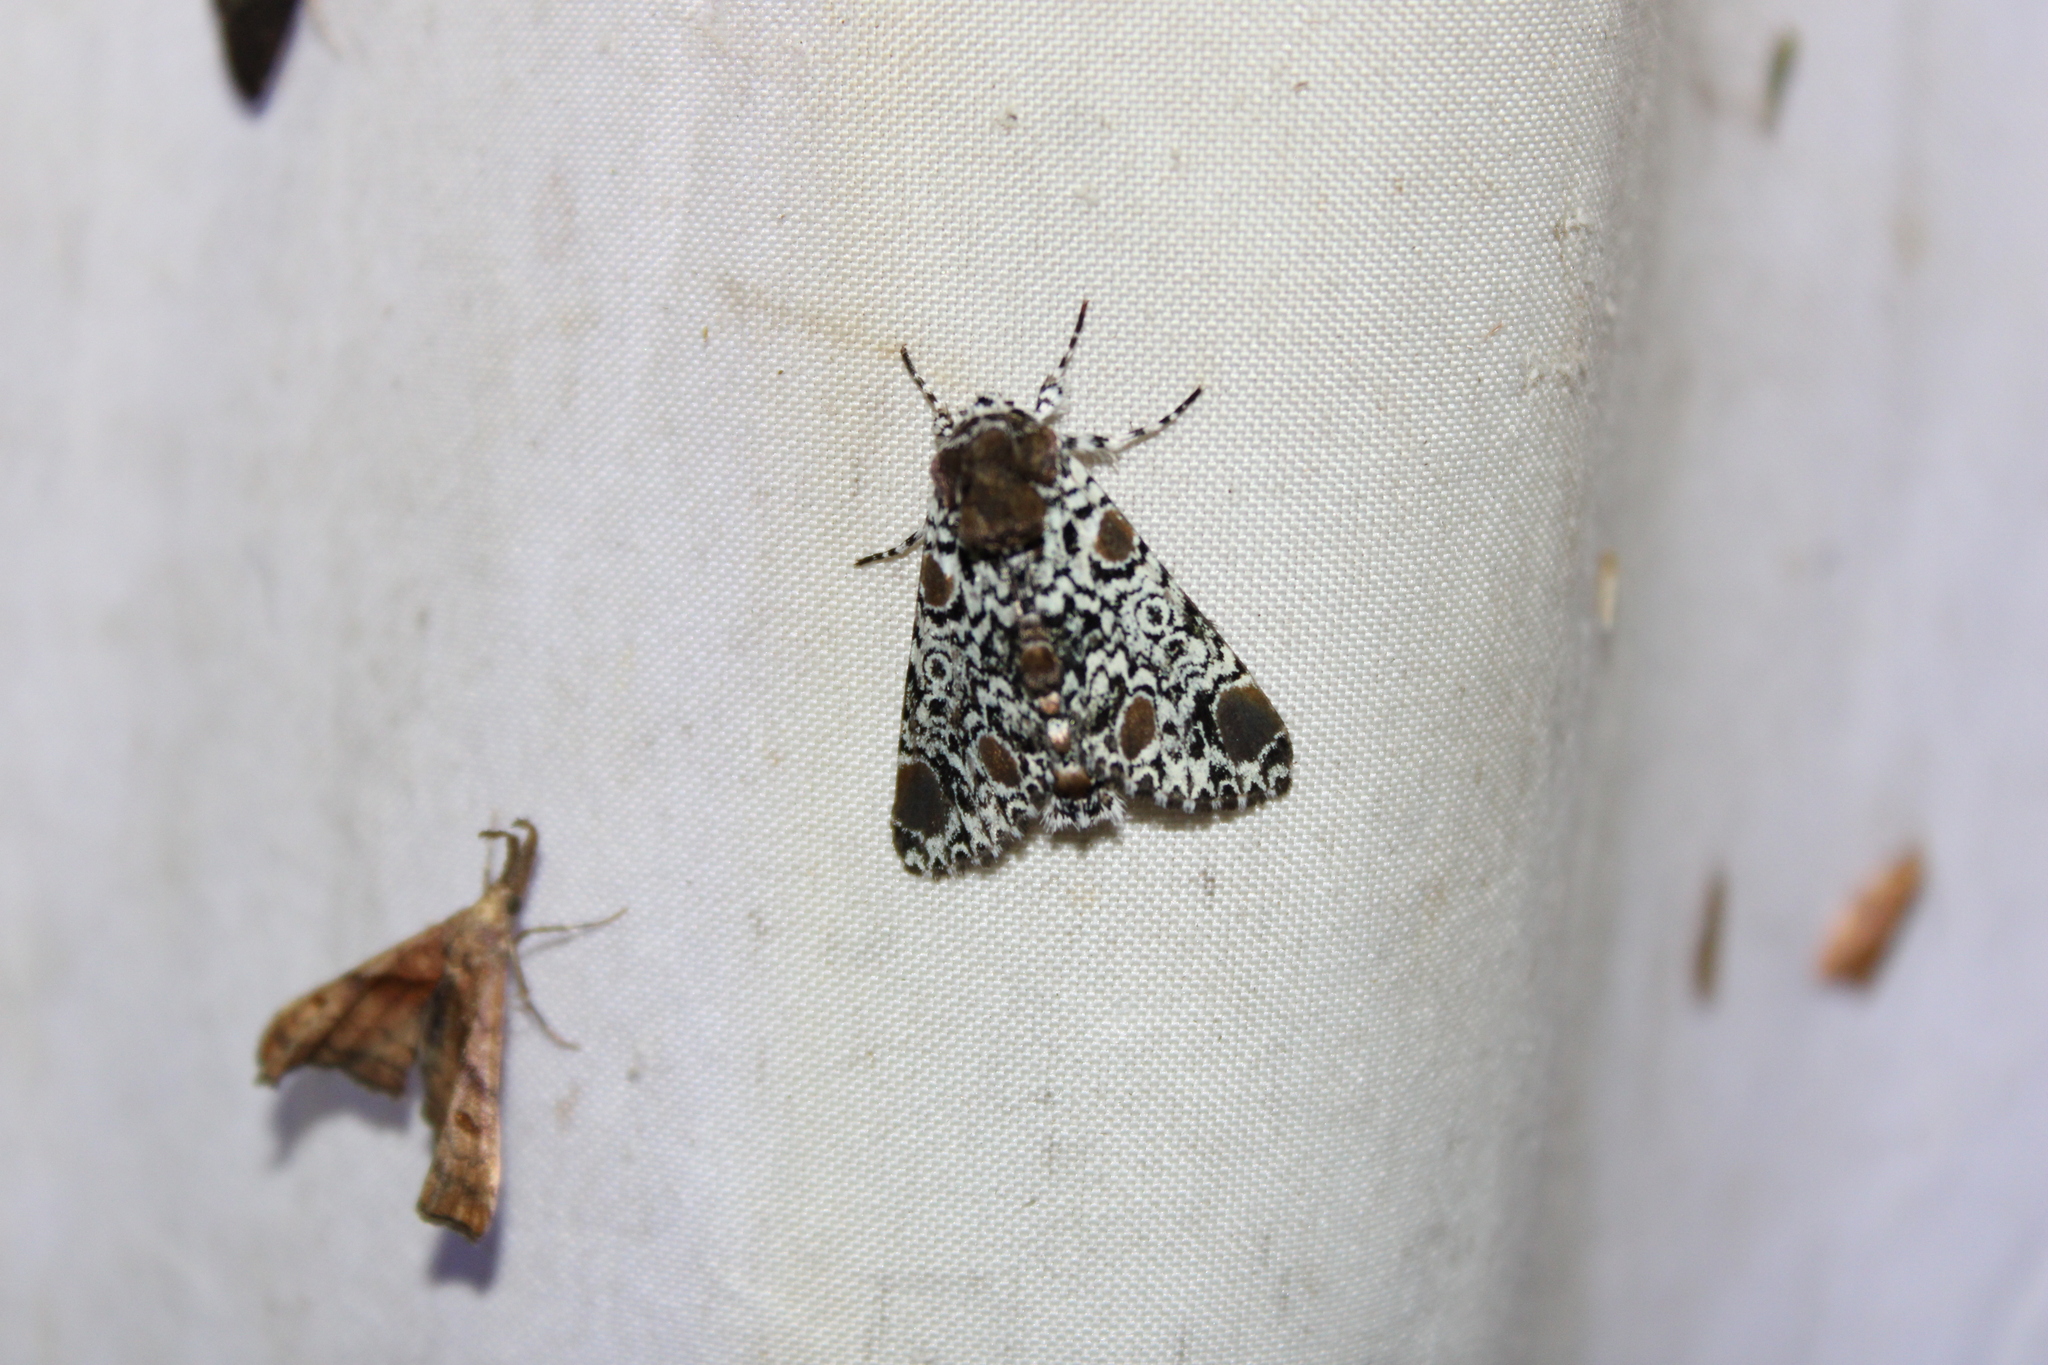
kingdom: Animalia
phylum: Arthropoda
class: Insecta
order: Lepidoptera
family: Noctuidae
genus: Harrisimemna
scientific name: Harrisimemna trisignata
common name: Harris threespot
